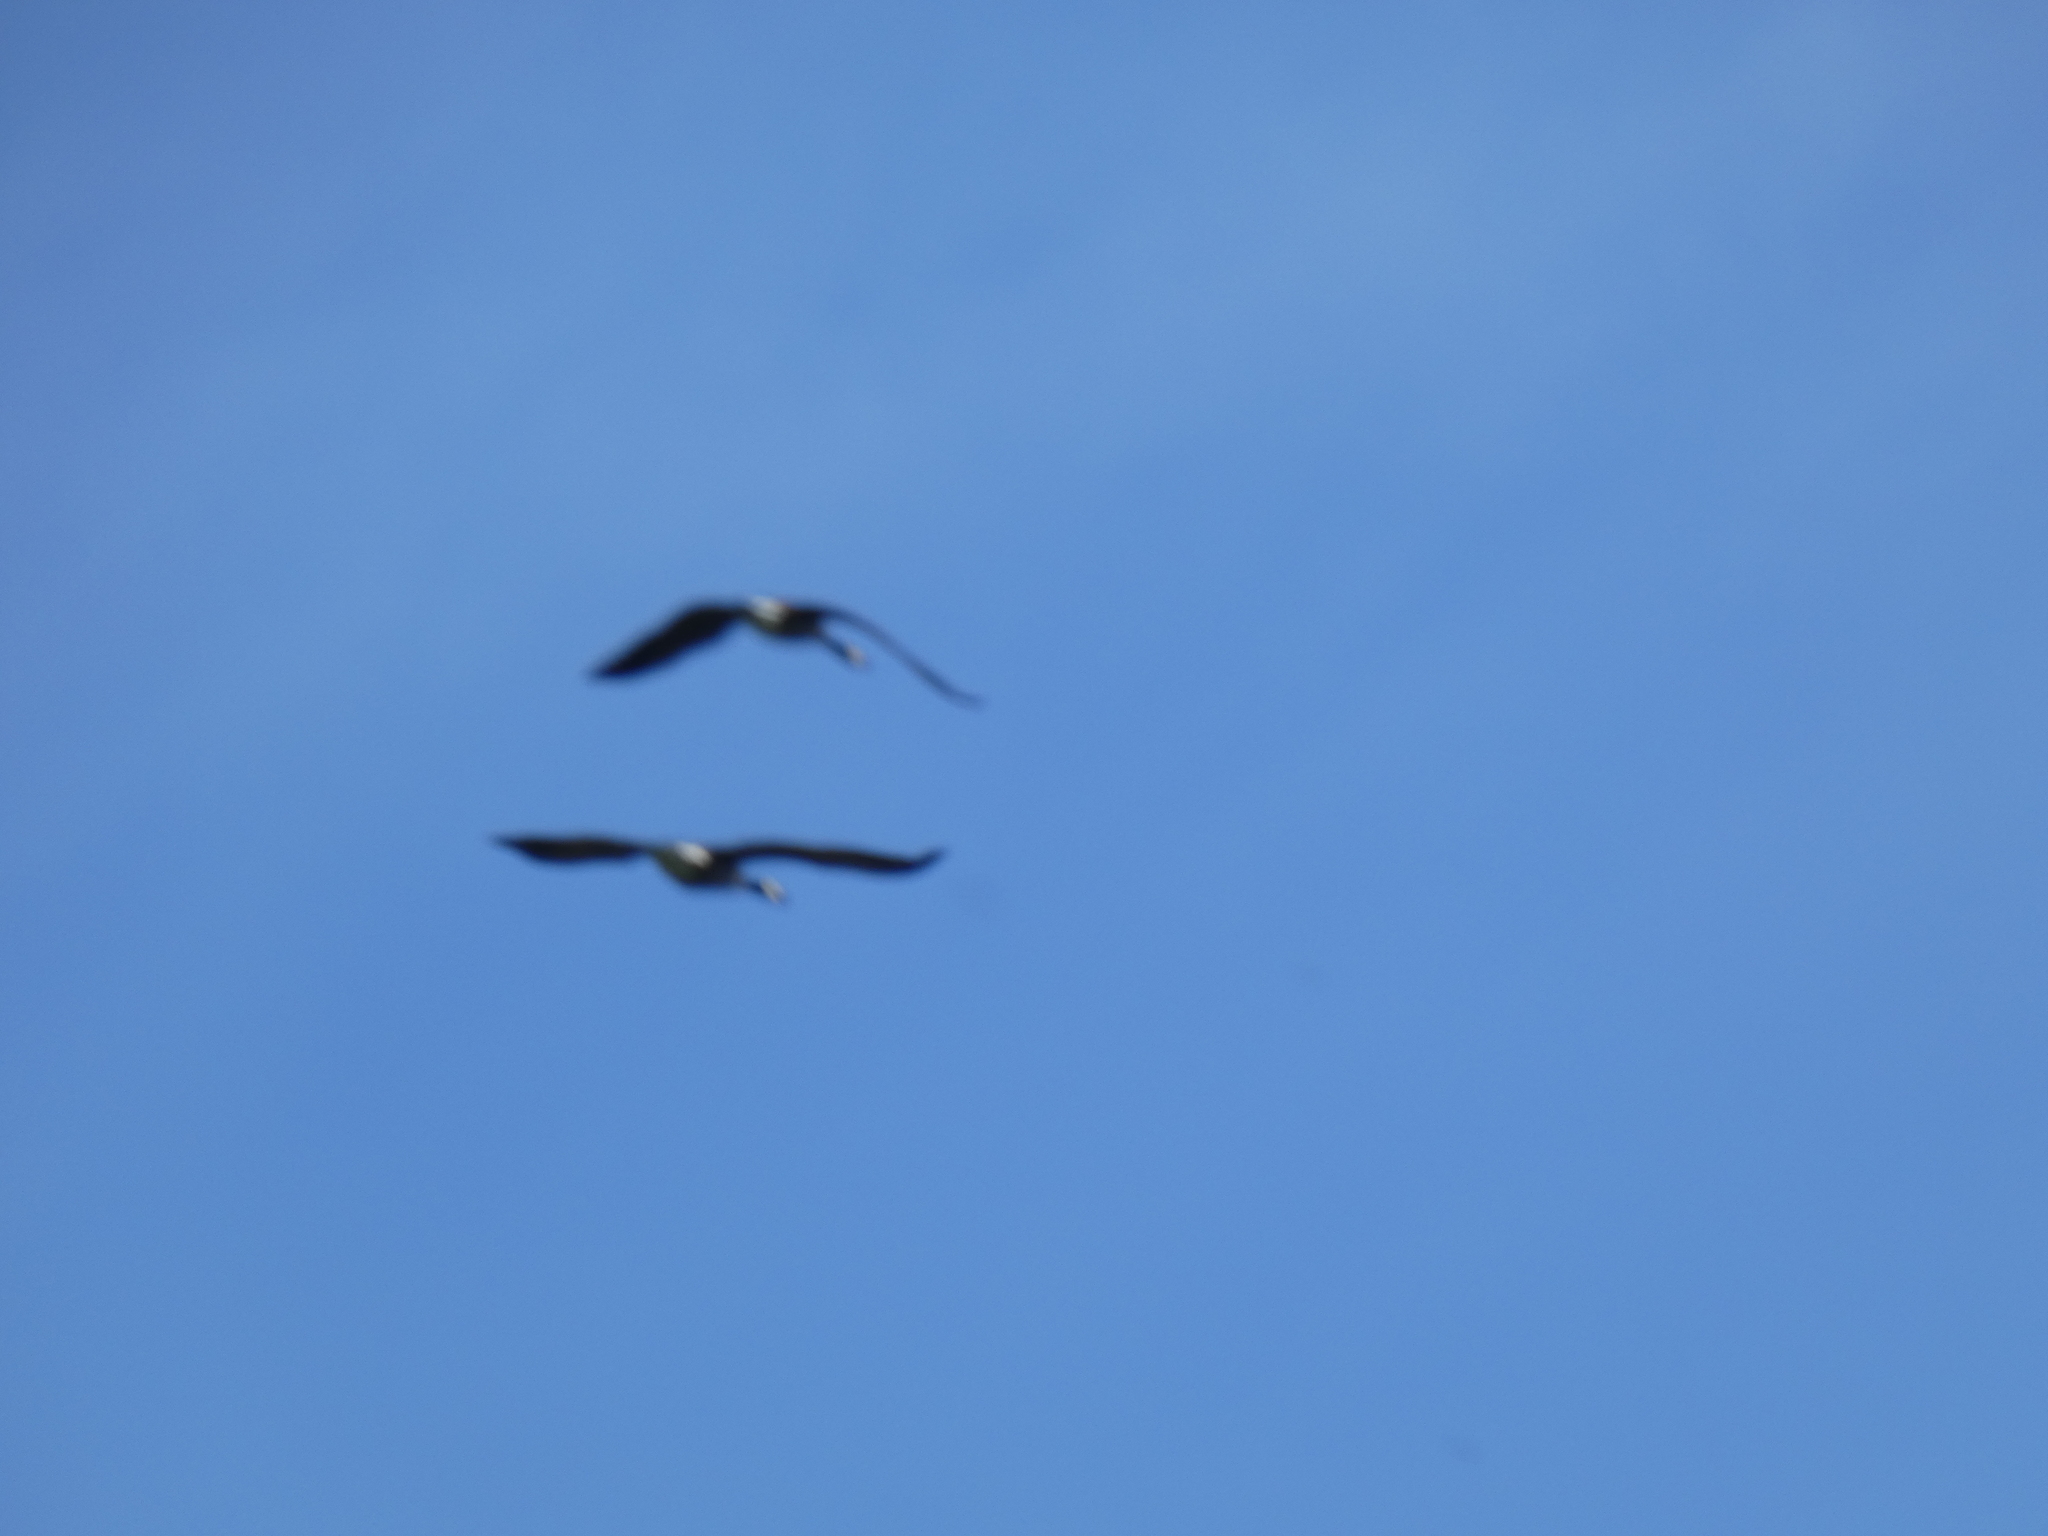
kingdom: Animalia
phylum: Chordata
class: Aves
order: Anseriformes
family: Anatidae
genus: Branta
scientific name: Branta canadensis
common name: Canada goose
